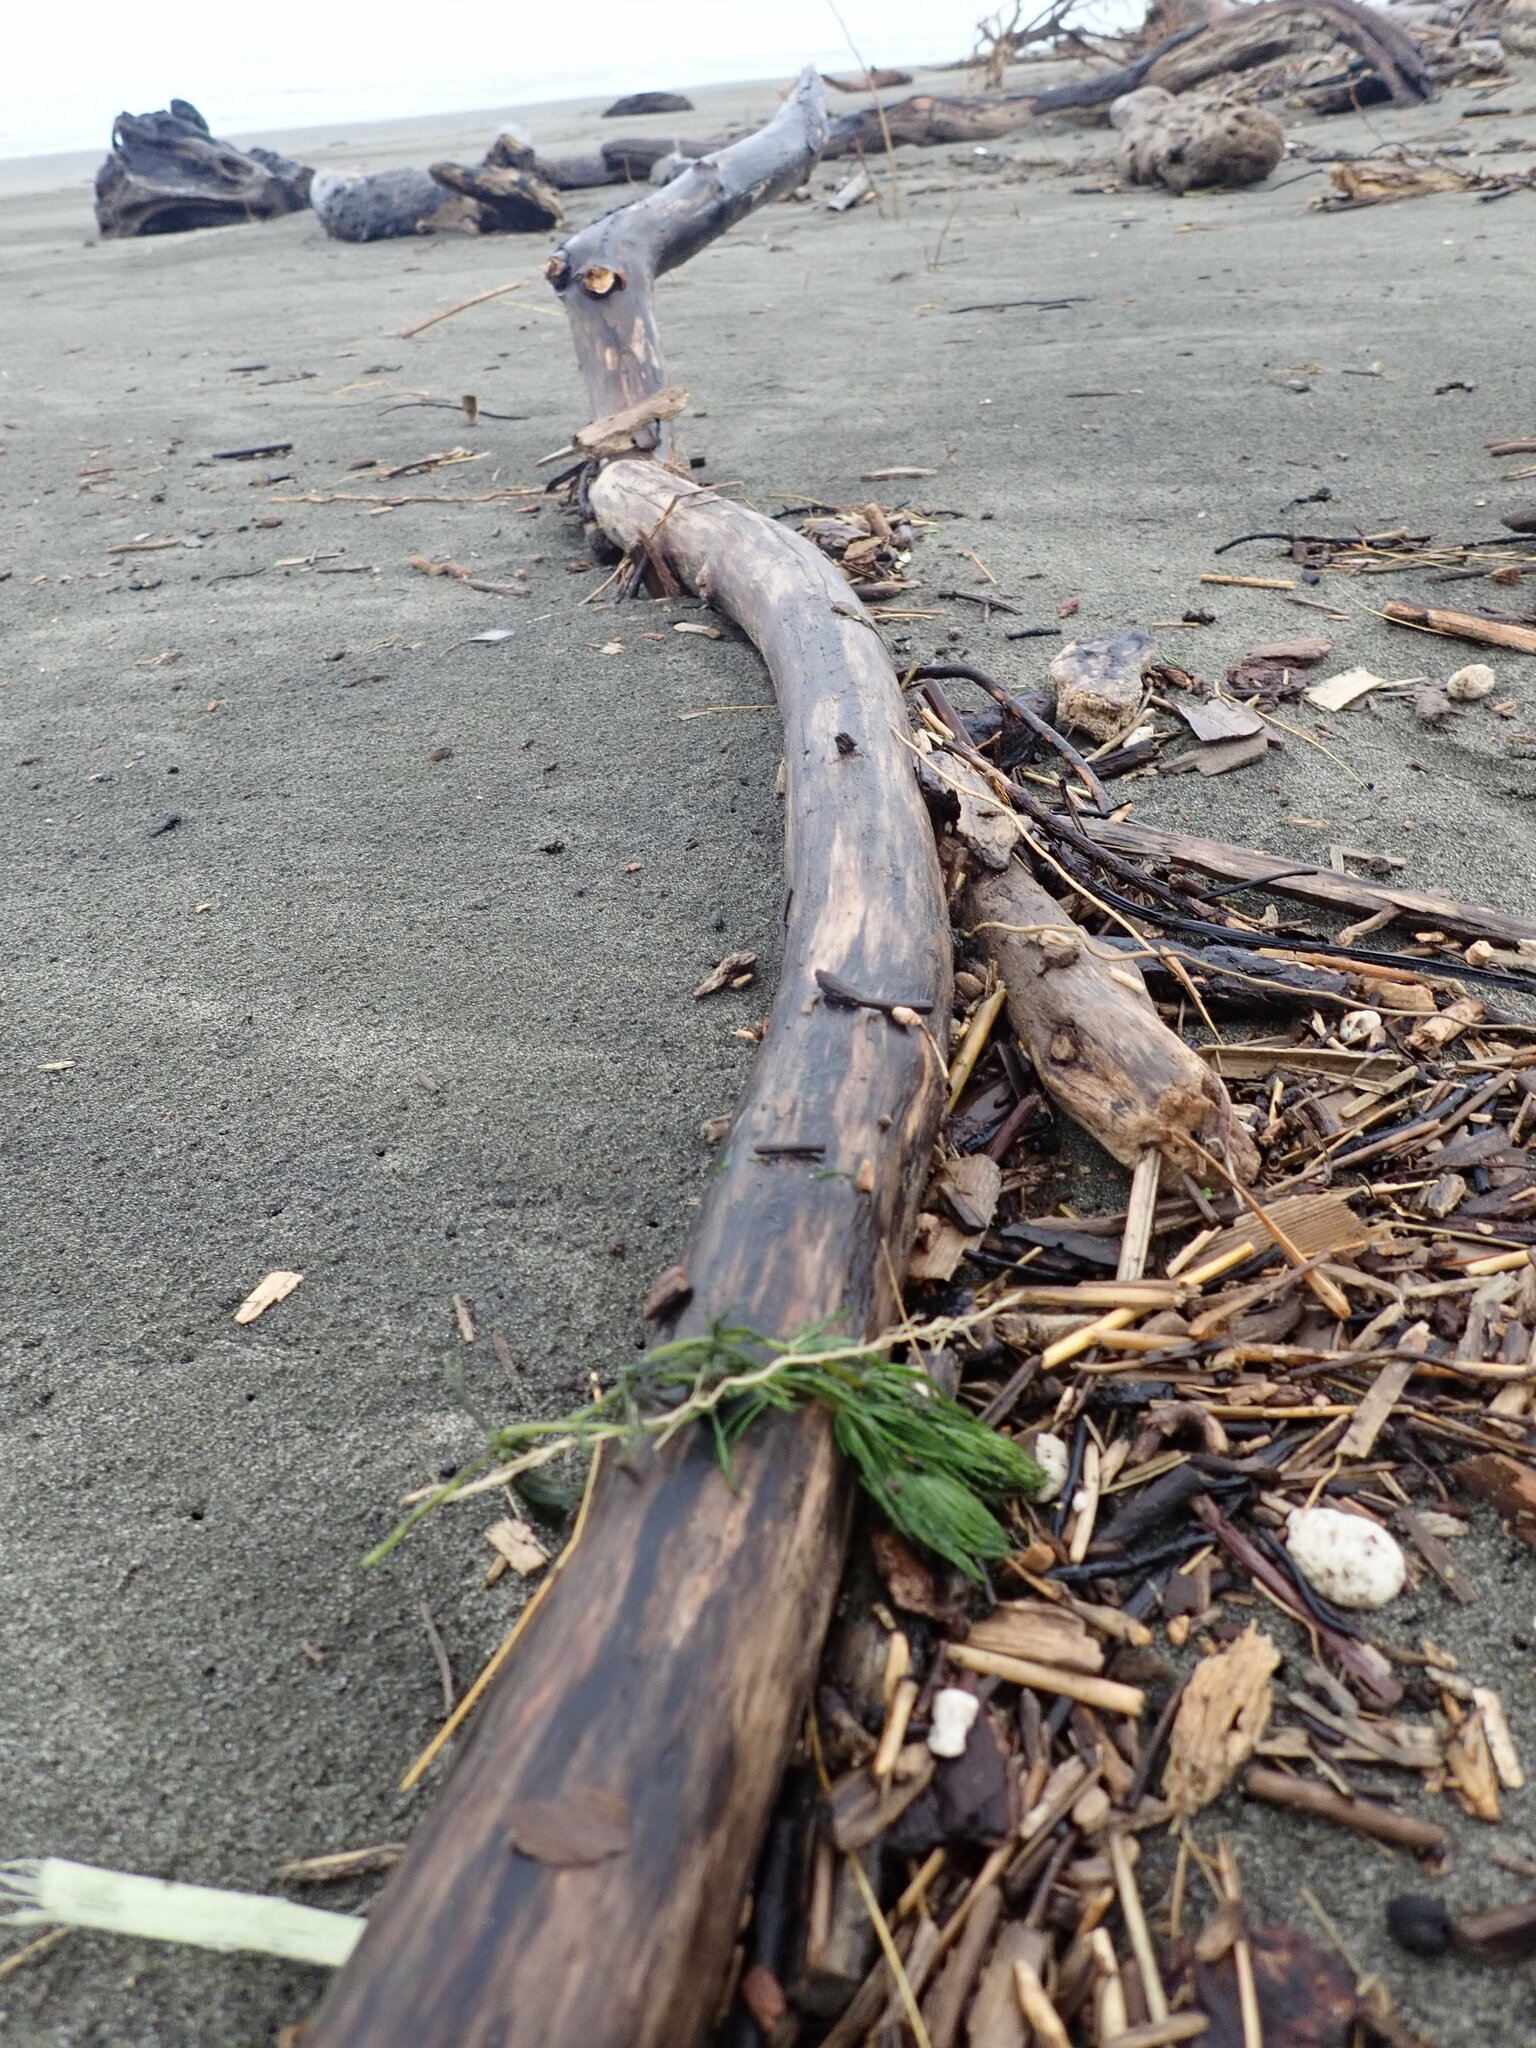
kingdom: Plantae
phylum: Tracheophyta
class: Magnoliopsida
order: Ceratophyllales
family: Ceratophyllaceae
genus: Ceratophyllum
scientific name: Ceratophyllum demersum
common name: Rigid hornwort
